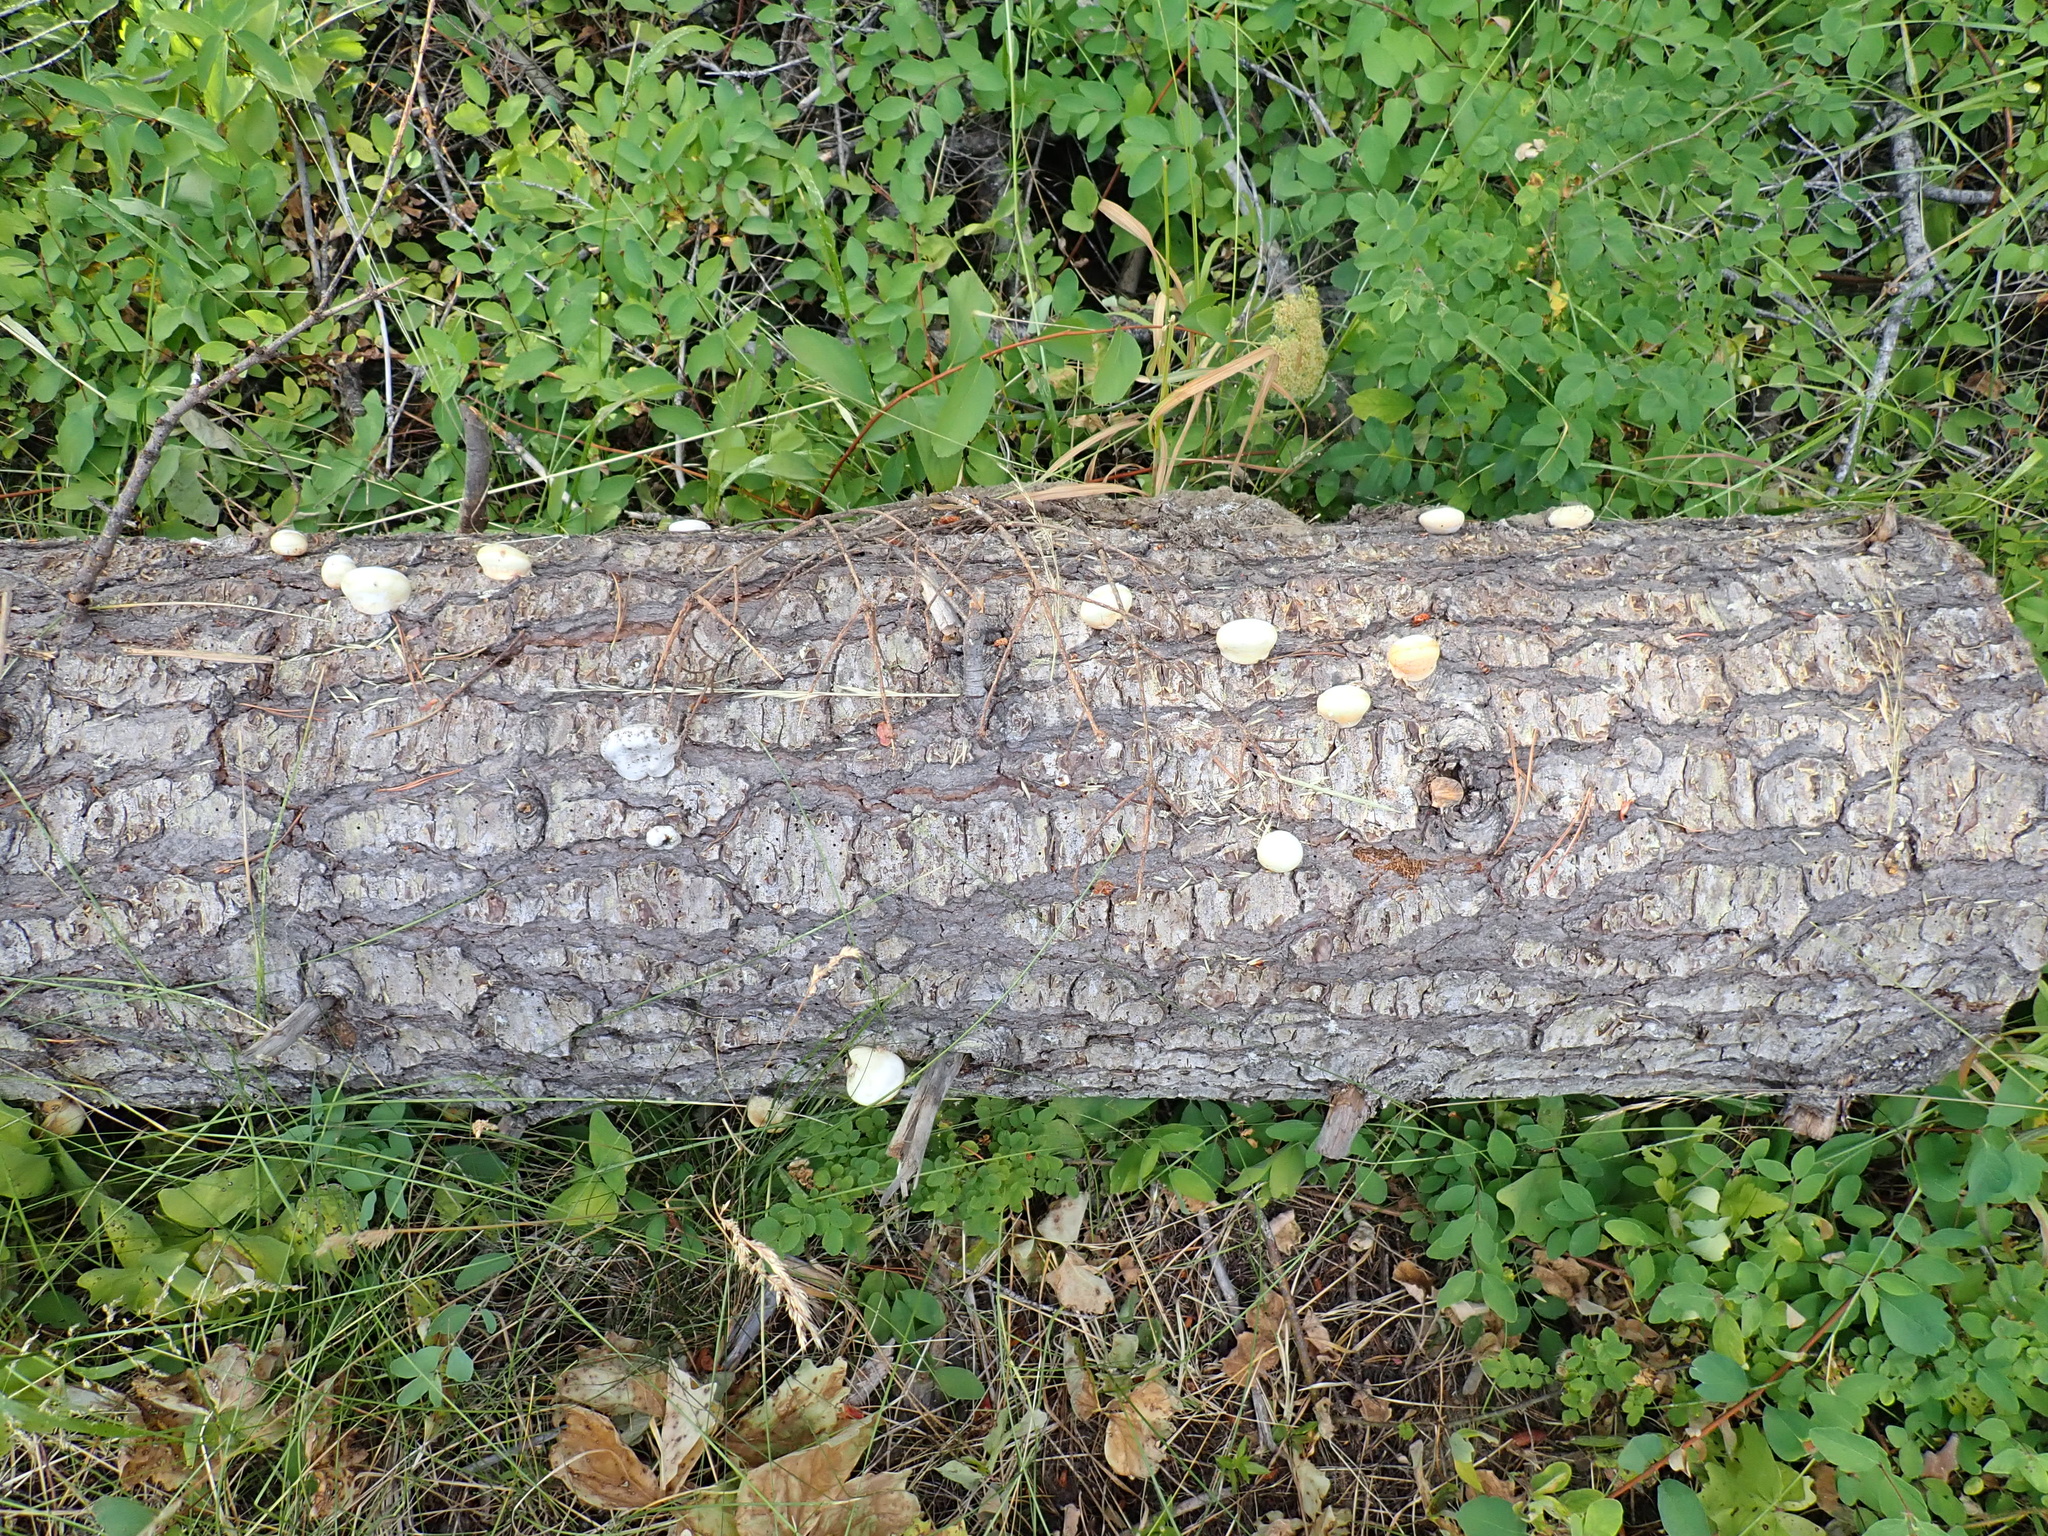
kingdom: Fungi
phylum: Basidiomycota
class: Agaricomycetes
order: Polyporales
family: Polyporaceae
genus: Cryptoporus
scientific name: Cryptoporus volvatus
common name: Veiled polypore
